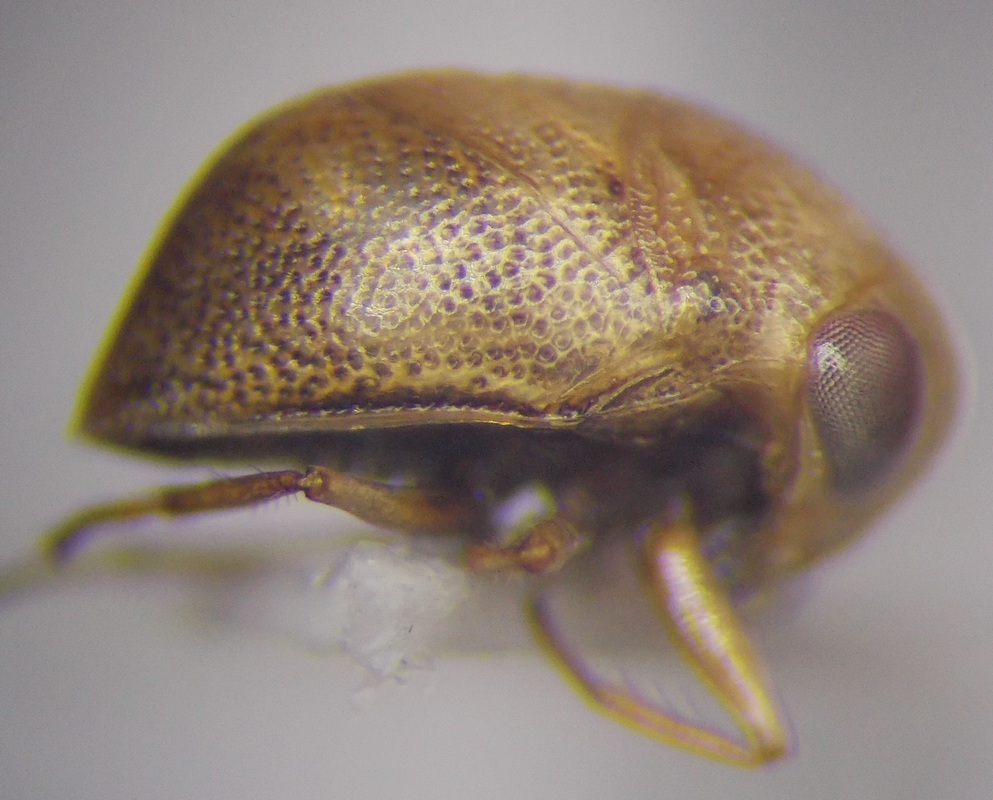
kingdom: Animalia
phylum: Arthropoda
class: Insecta
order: Hemiptera
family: Pleidae
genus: Plea
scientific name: Plea minutissima
